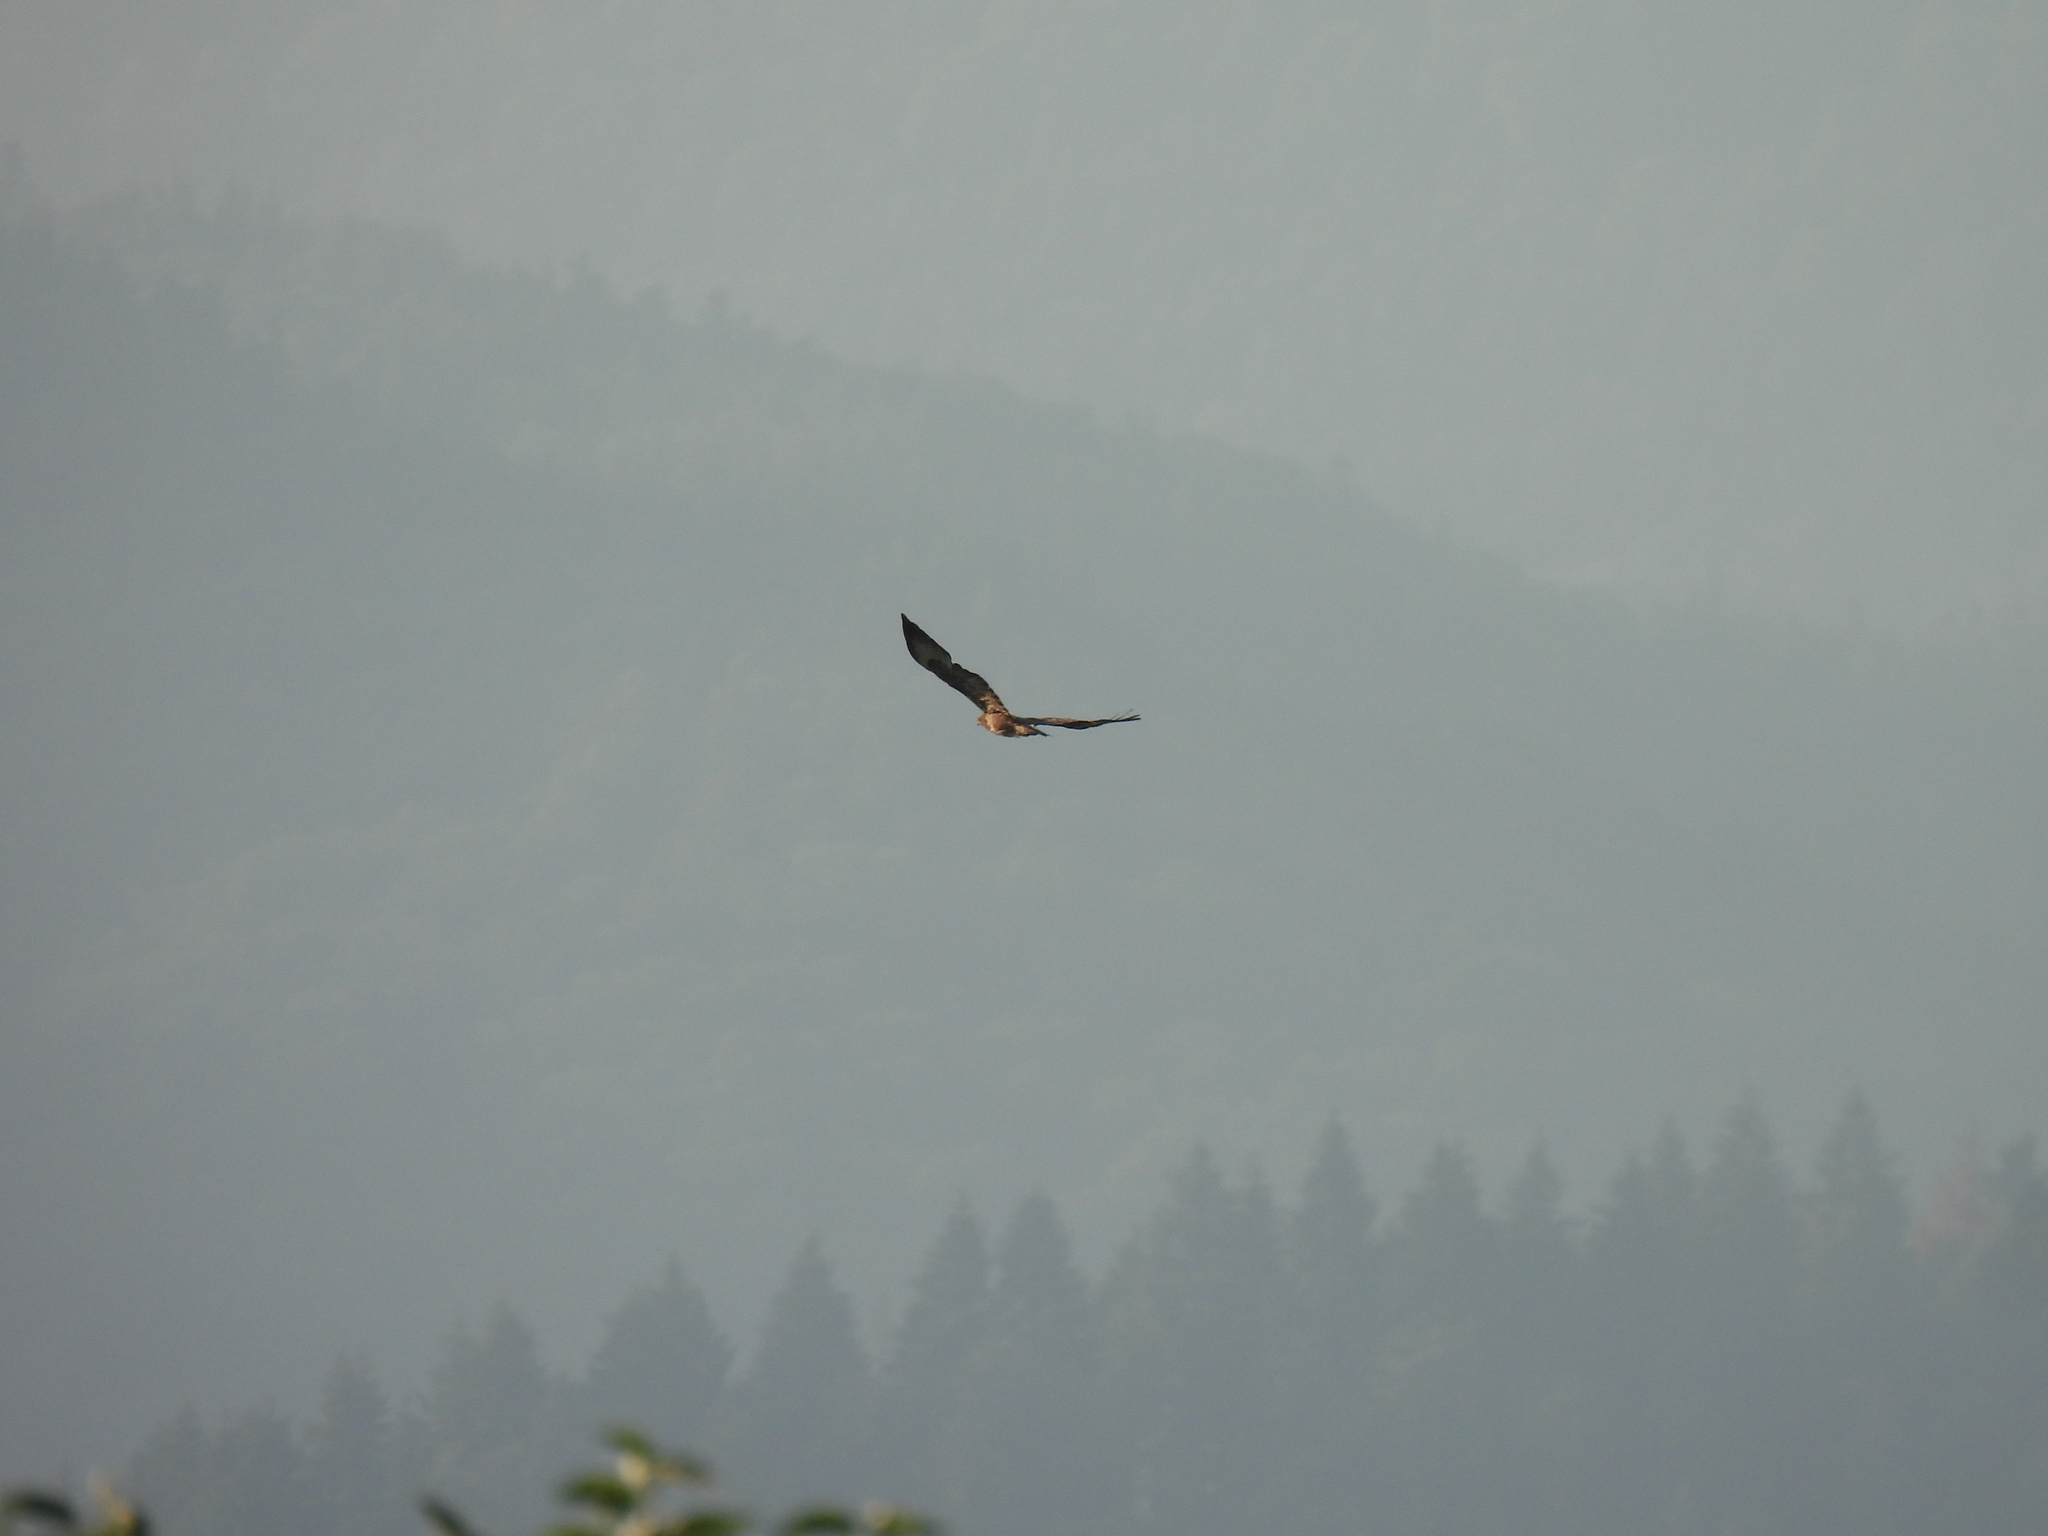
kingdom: Animalia
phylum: Chordata
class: Aves
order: Accipitriformes
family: Accipitridae
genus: Buteo
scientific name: Buteo buteo
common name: Common buzzard
